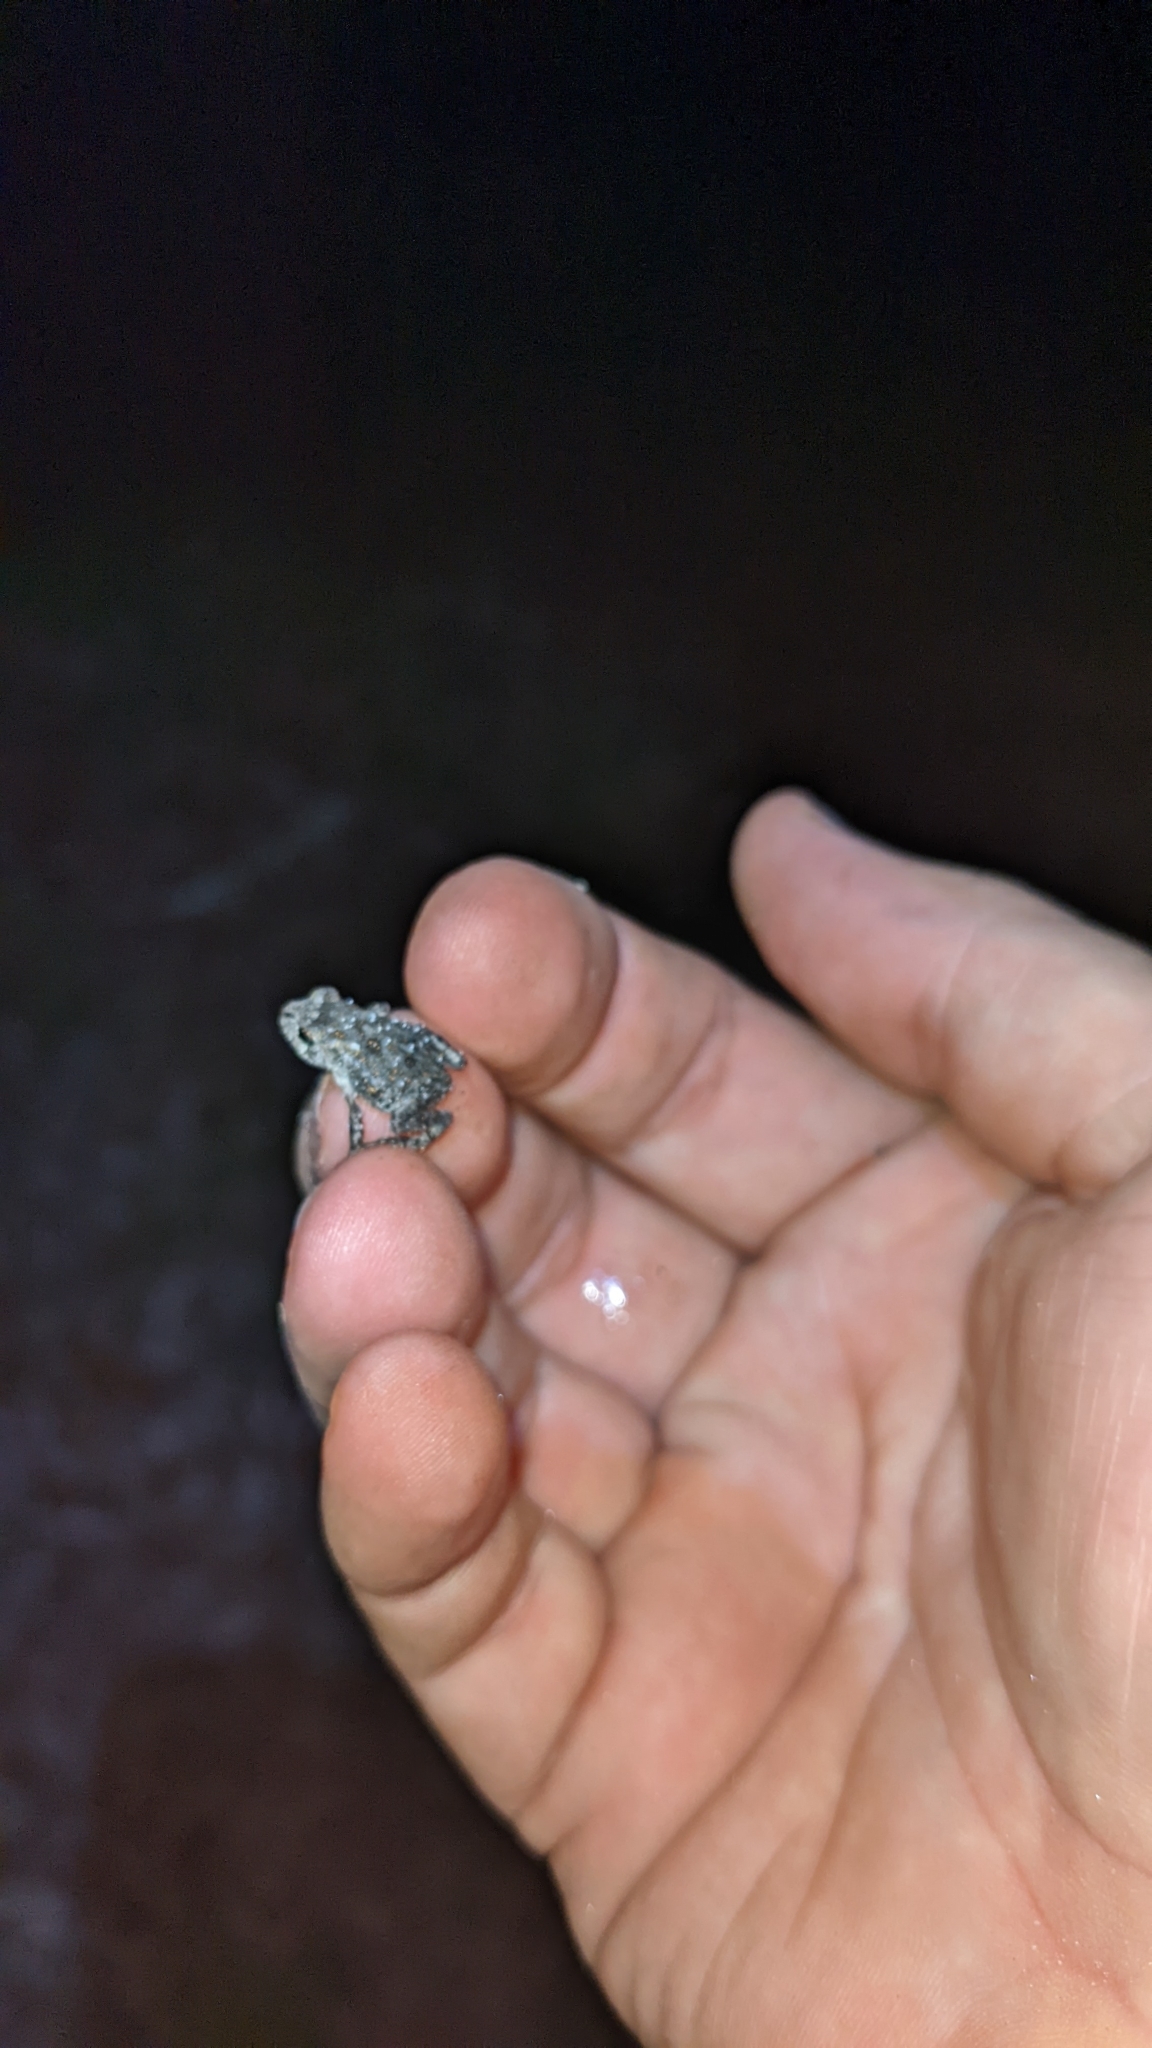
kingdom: Animalia
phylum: Chordata
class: Amphibia
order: Anura
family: Bufonidae
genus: Anaxyrus
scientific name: Anaxyrus terrestris
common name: Southern toad
